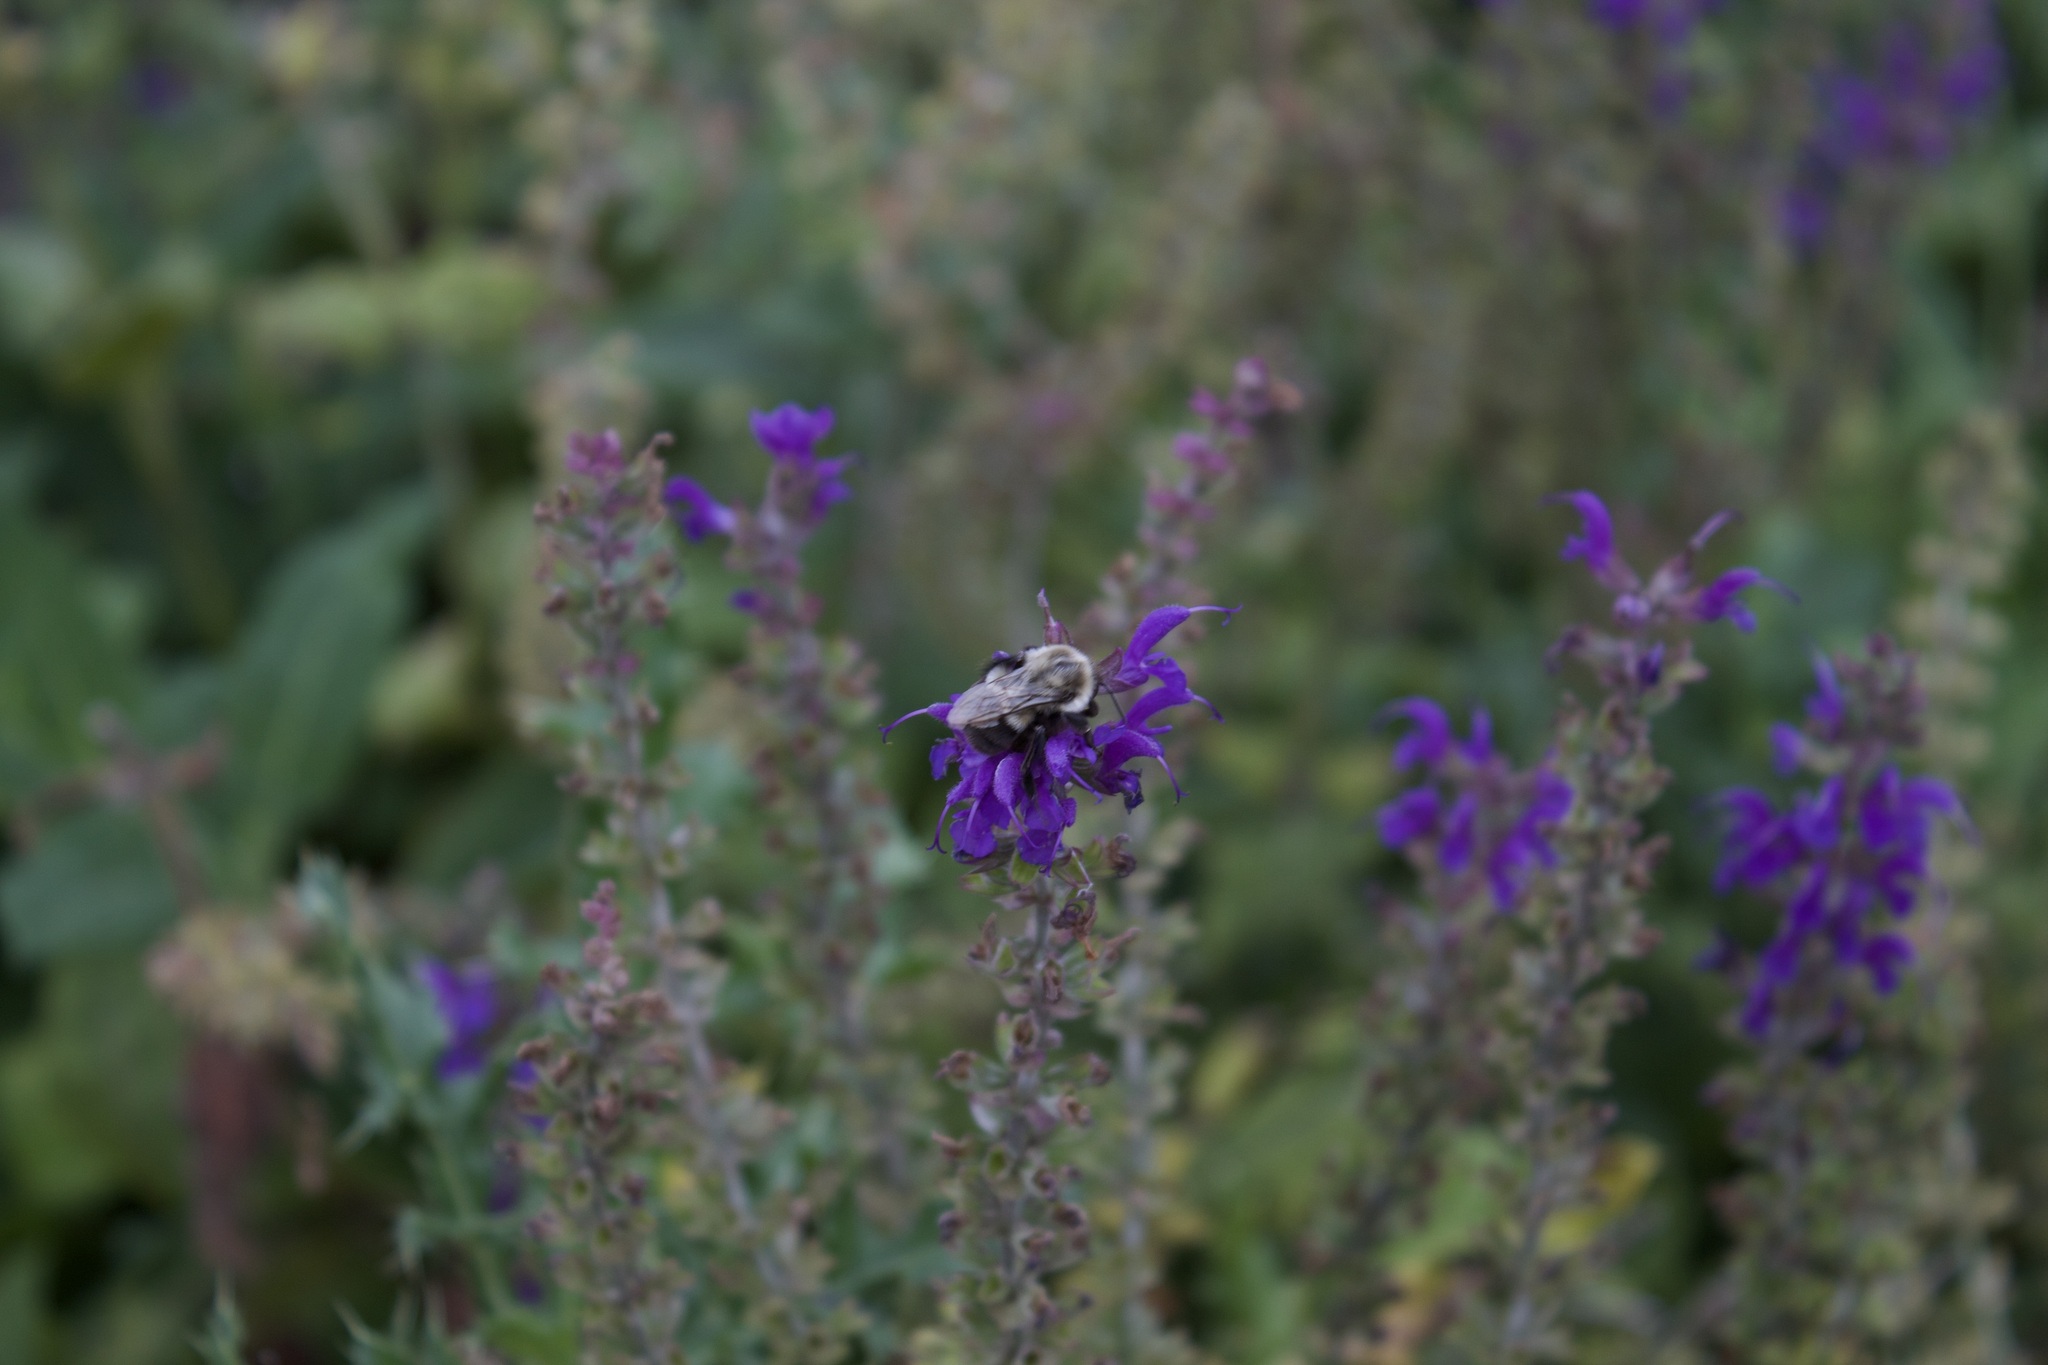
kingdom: Animalia
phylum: Arthropoda
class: Insecta
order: Hymenoptera
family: Apidae
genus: Bombus
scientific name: Bombus impatiens
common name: Common eastern bumble bee
